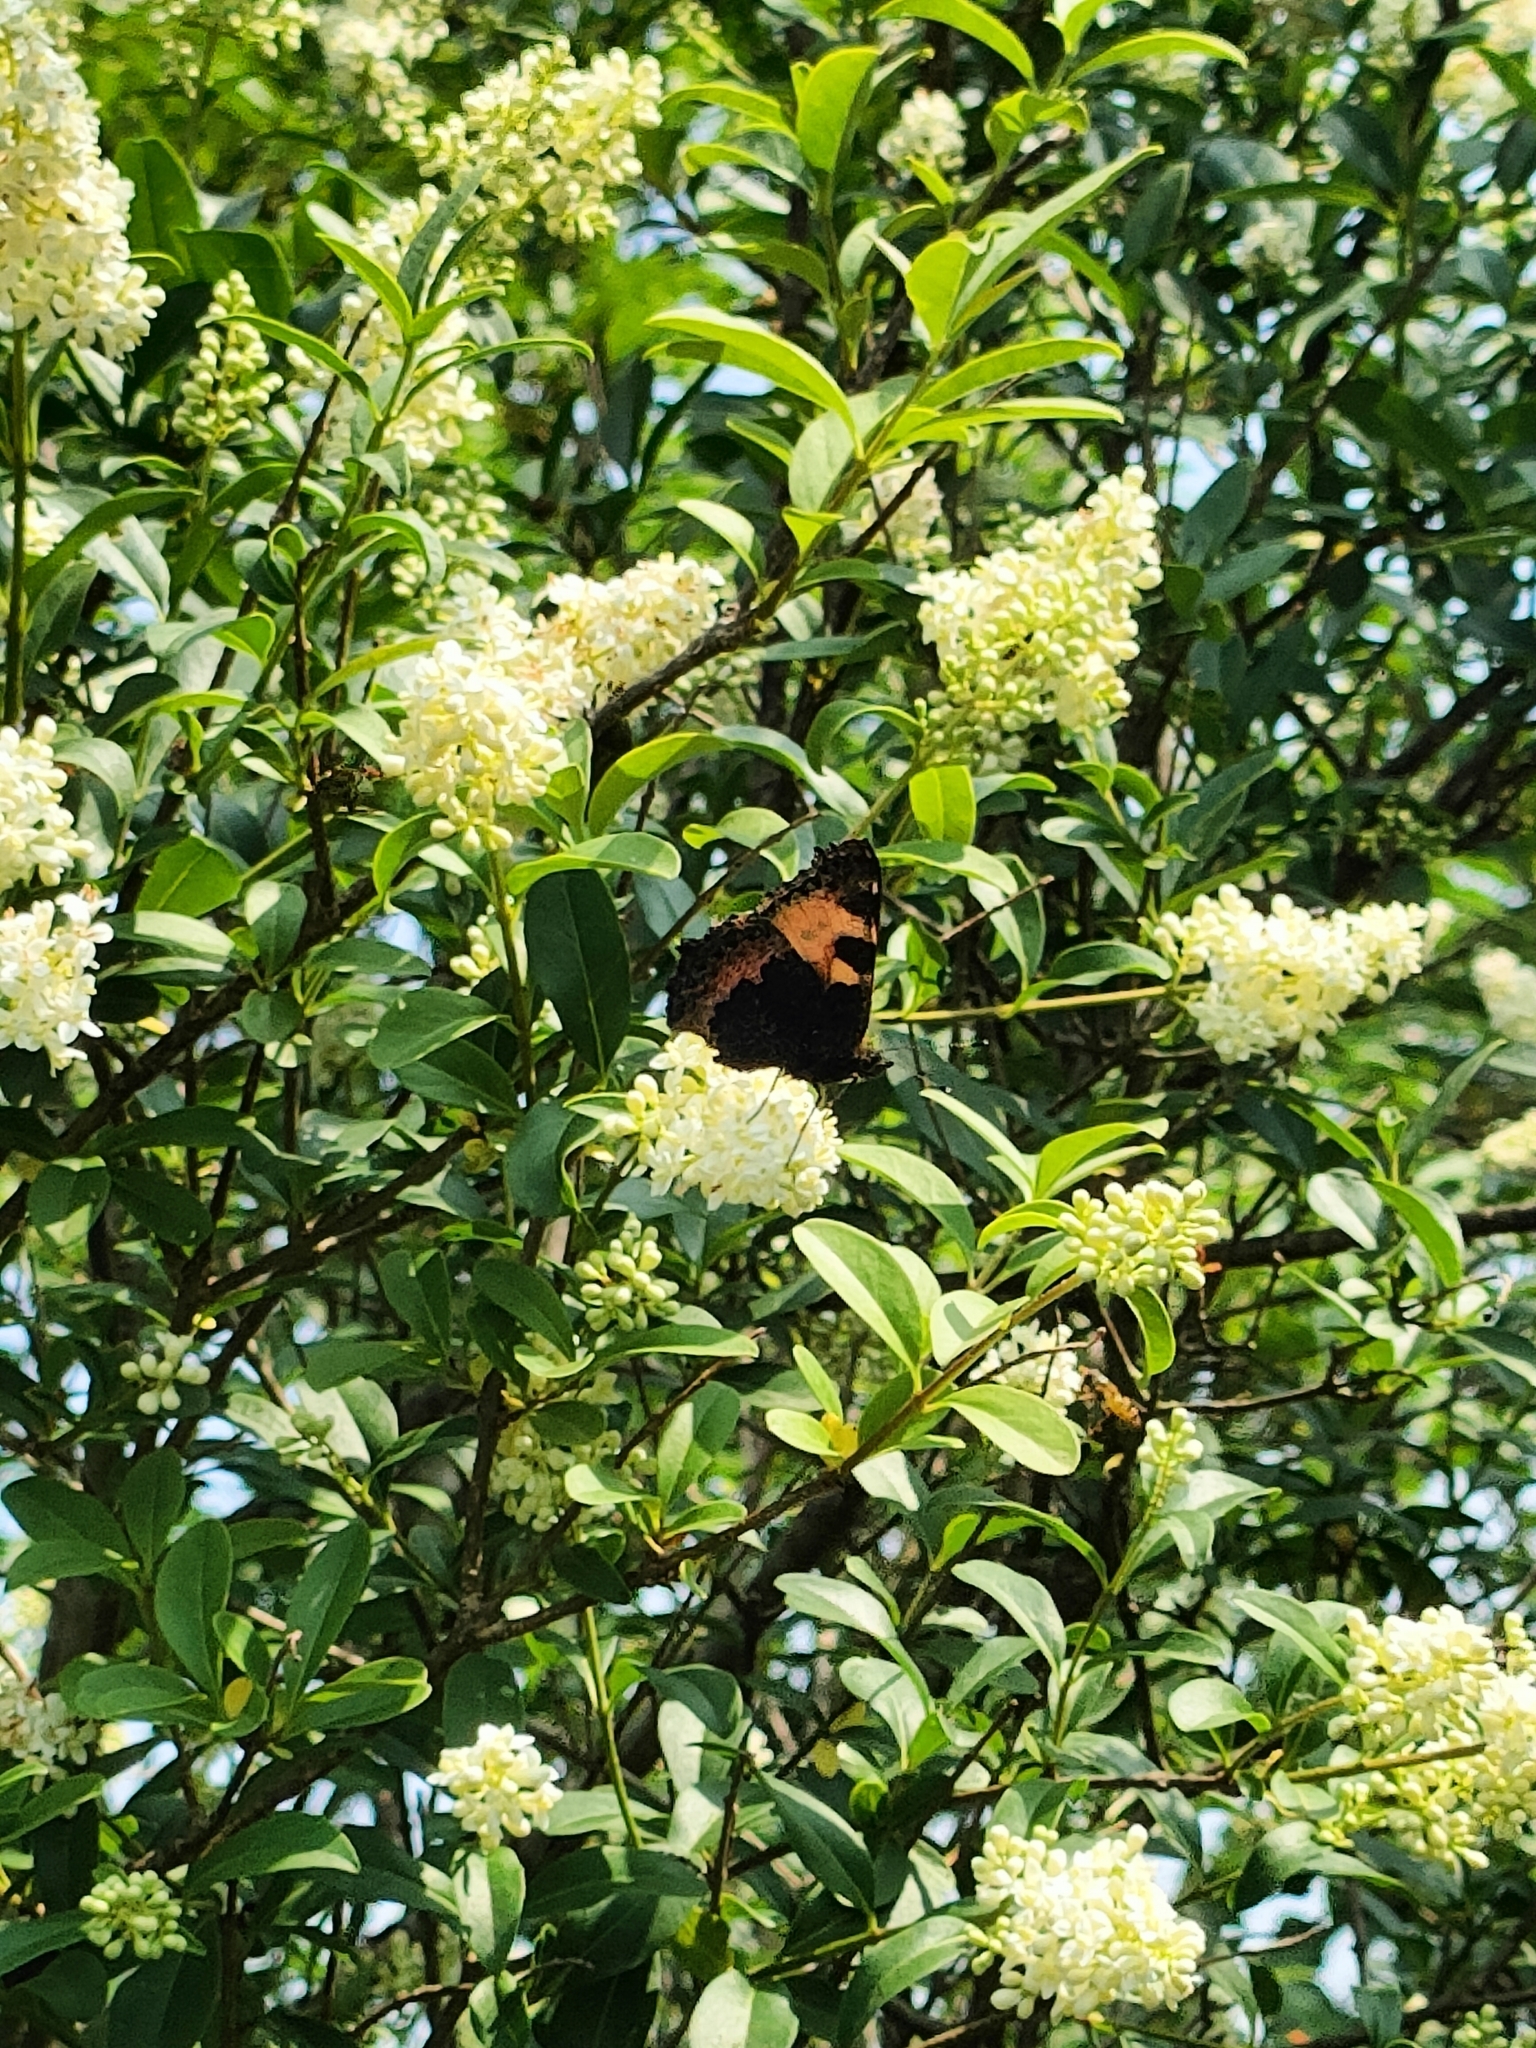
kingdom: Animalia
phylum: Arthropoda
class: Insecta
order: Lepidoptera
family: Nymphalidae
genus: Aglais
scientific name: Aglais urticae
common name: Small tortoiseshell
